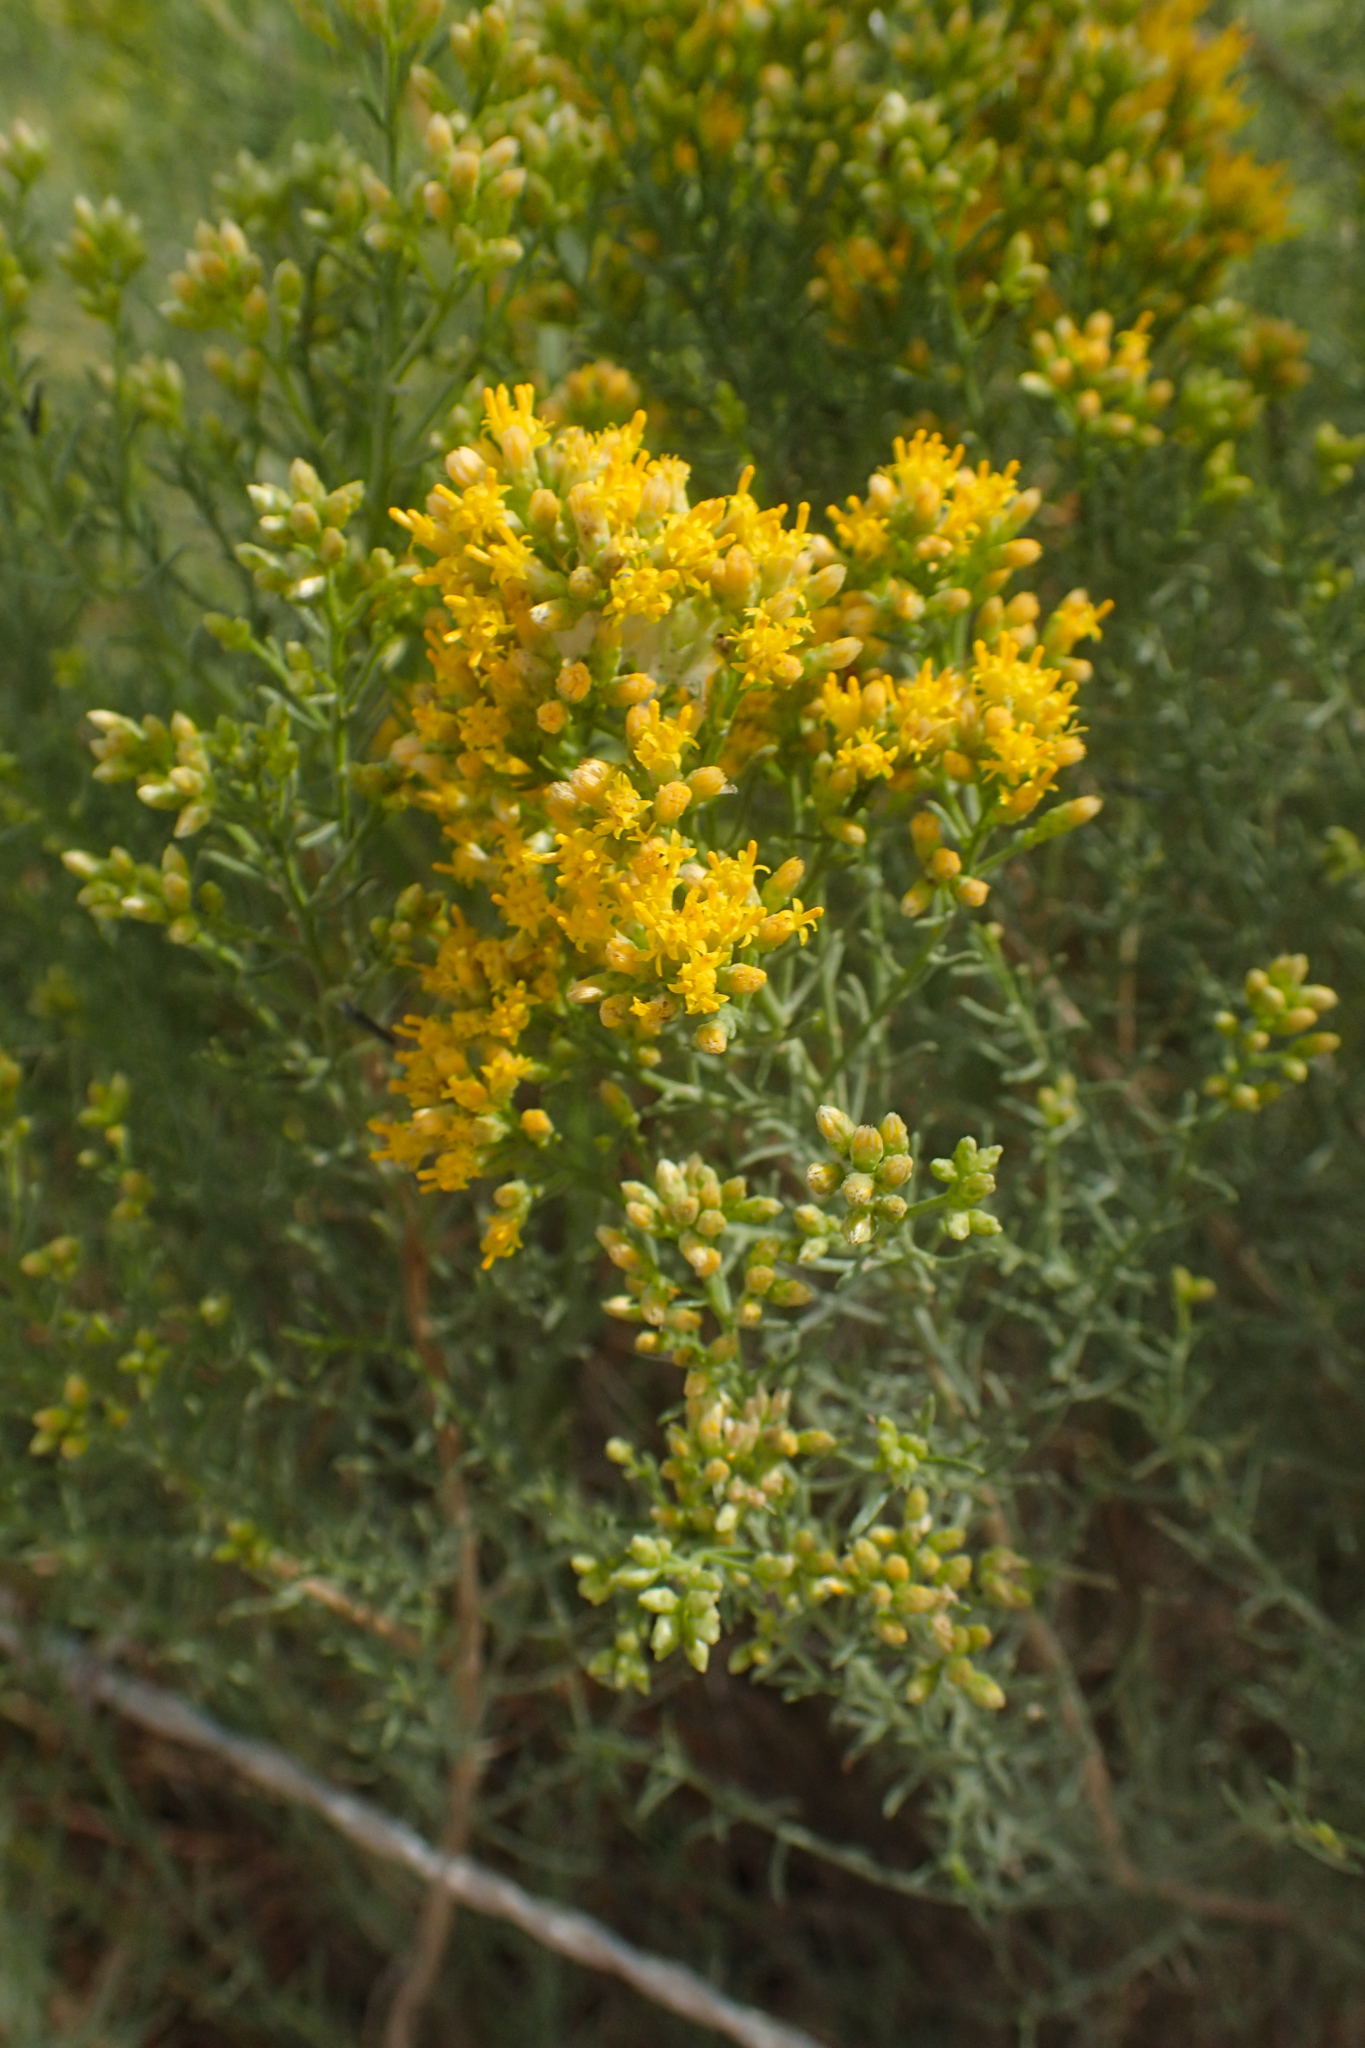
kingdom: Plantae
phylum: Tracheophyta
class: Magnoliopsida
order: Asterales
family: Asteraceae
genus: Gundlachia
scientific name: Gundlachia diffusa
